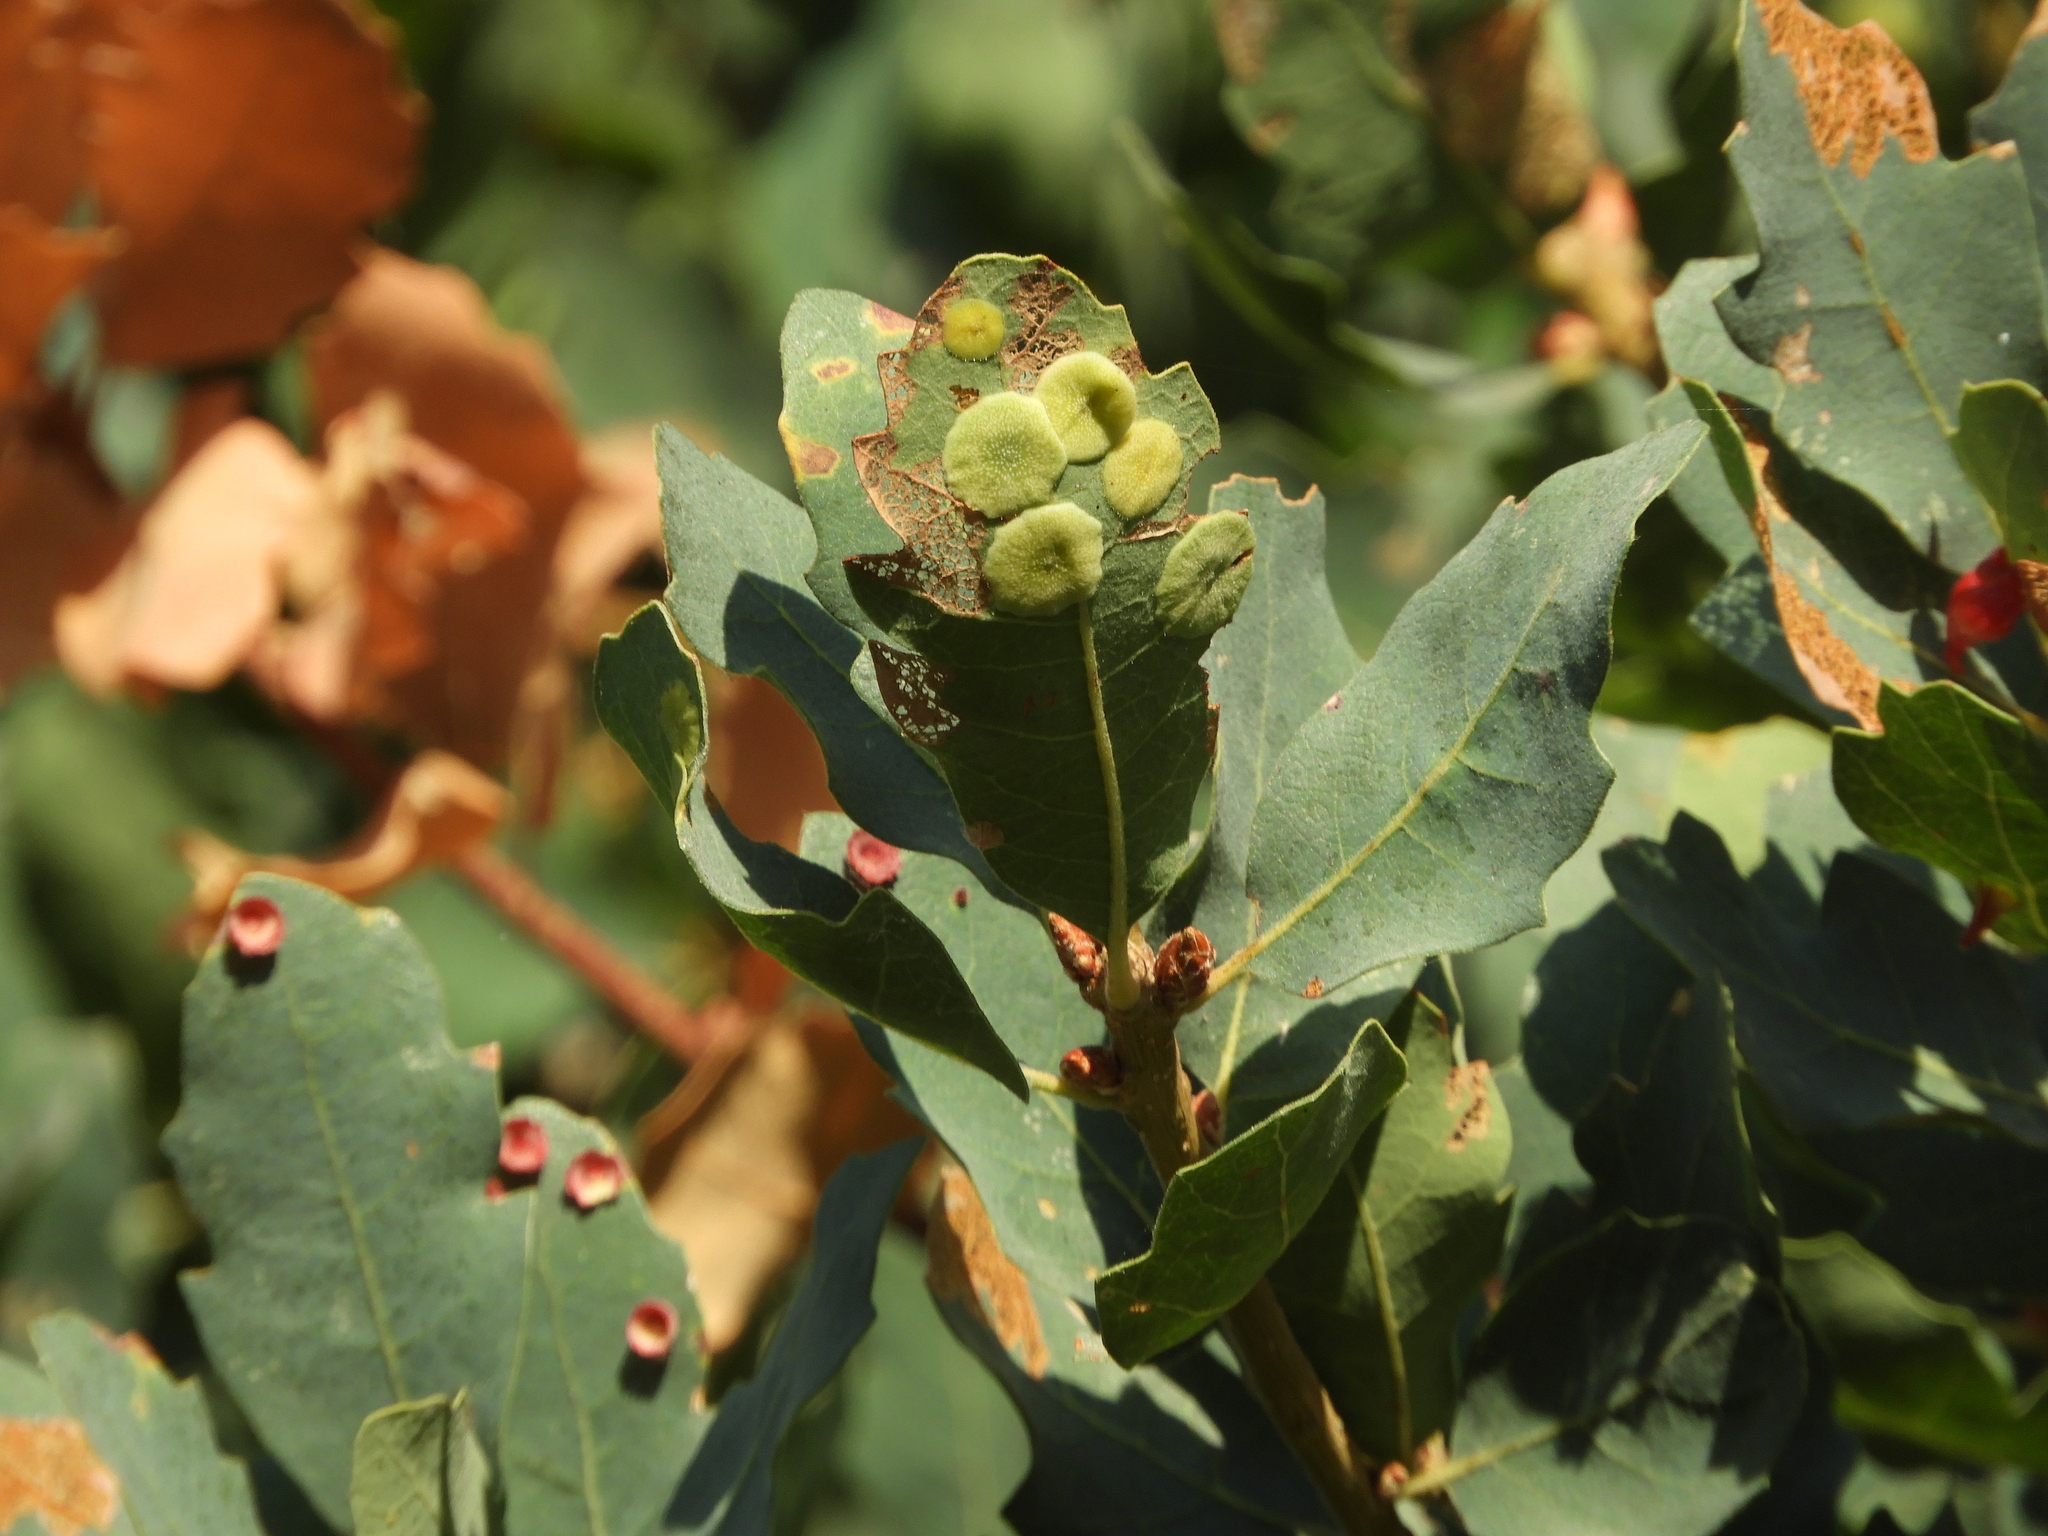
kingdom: Animalia
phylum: Arthropoda
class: Insecta
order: Hymenoptera
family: Cynipidae
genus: Andricus
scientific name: Andricus
